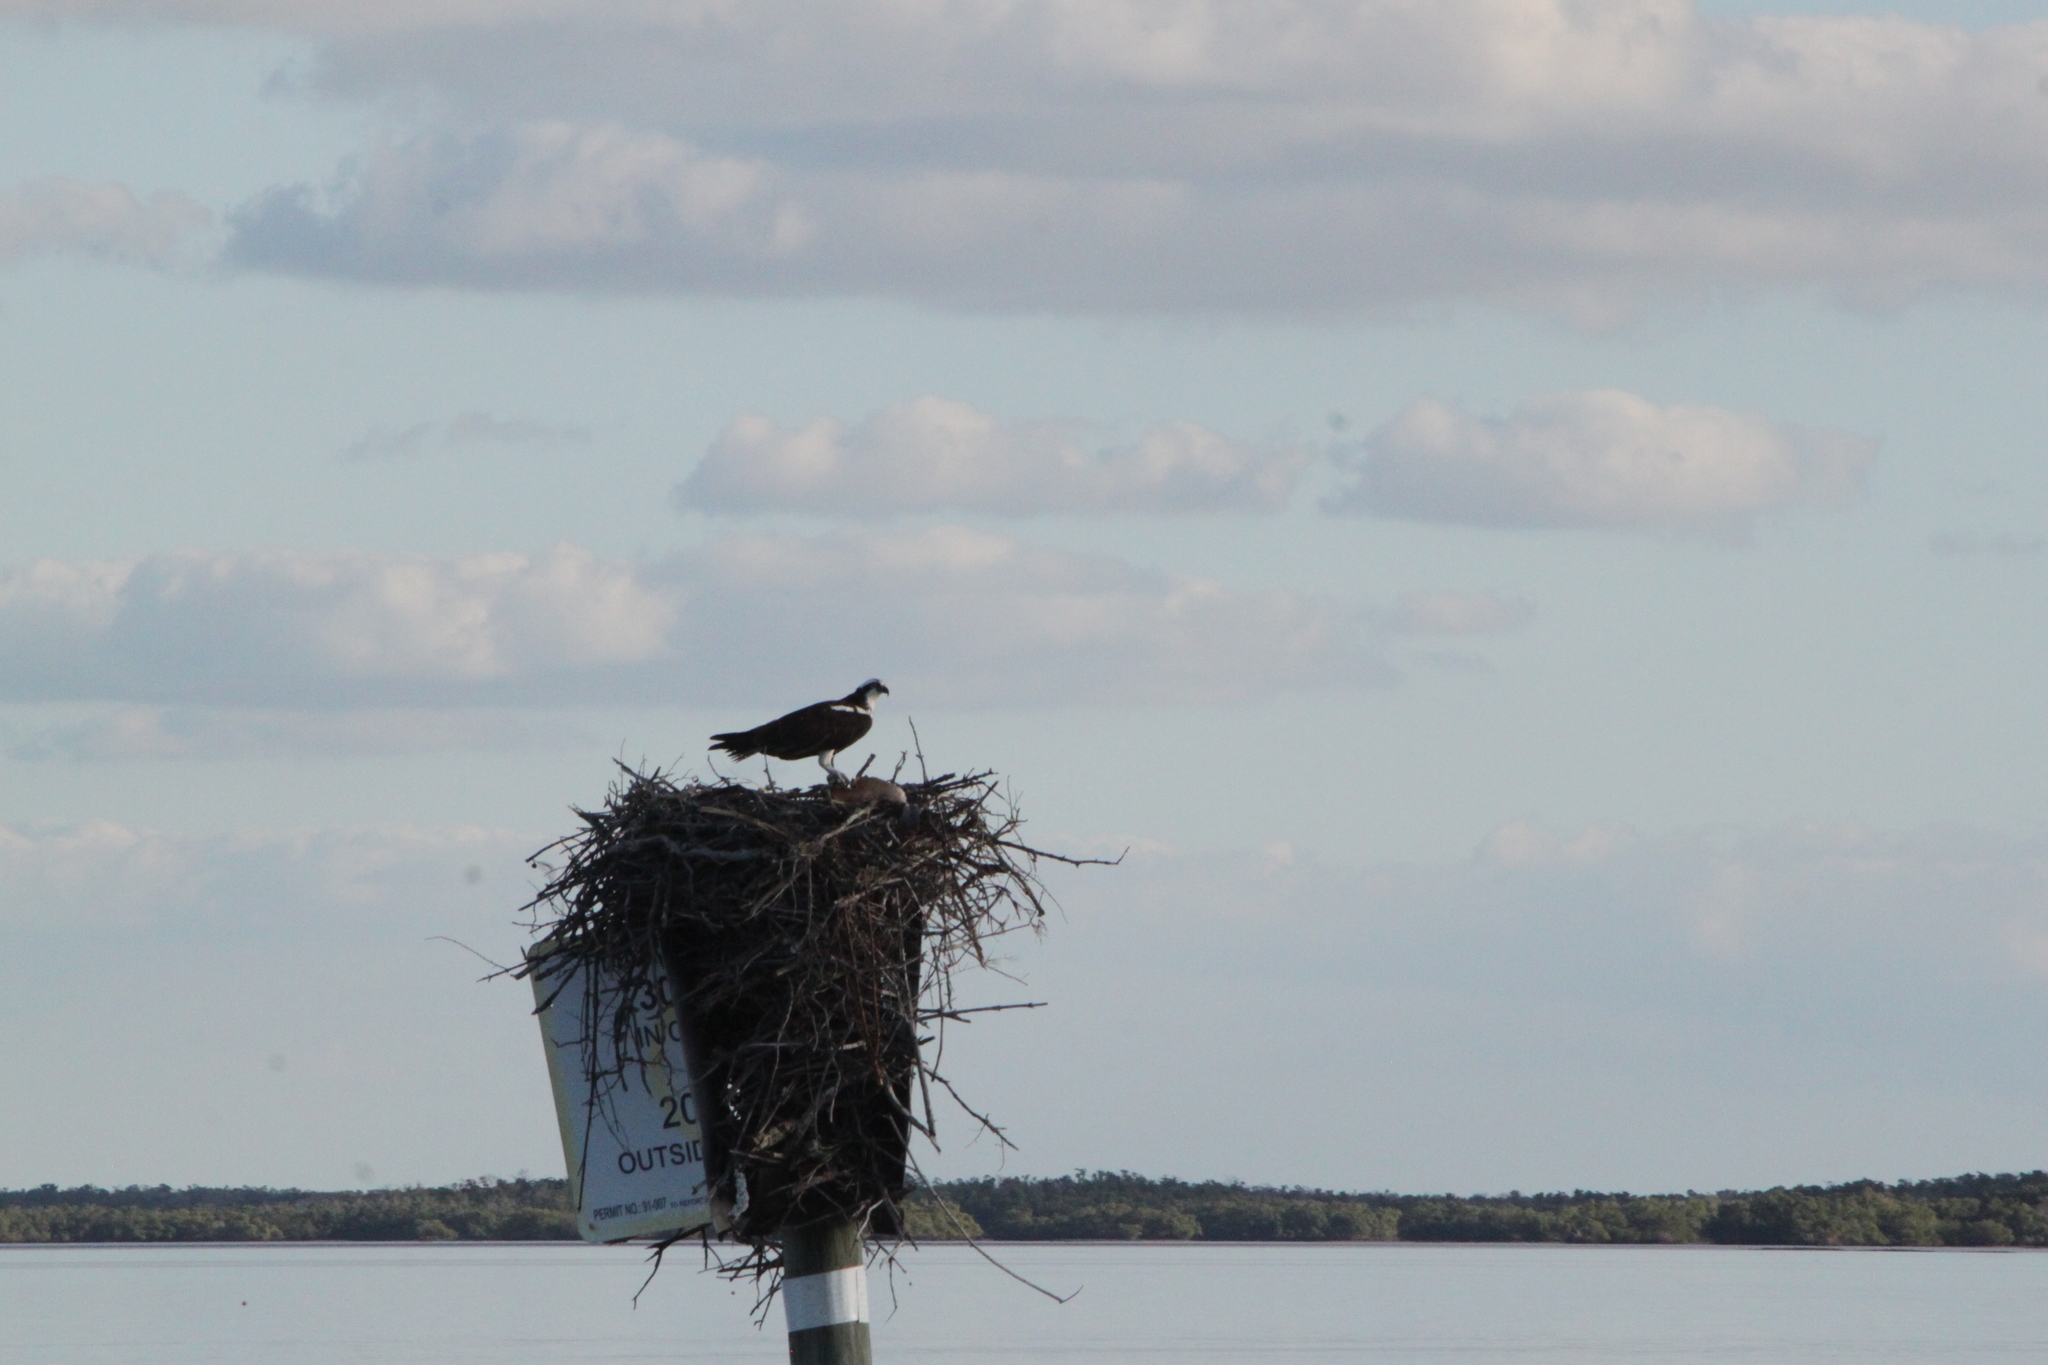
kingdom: Animalia
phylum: Chordata
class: Aves
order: Accipitriformes
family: Pandionidae
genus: Pandion
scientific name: Pandion haliaetus
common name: Osprey
